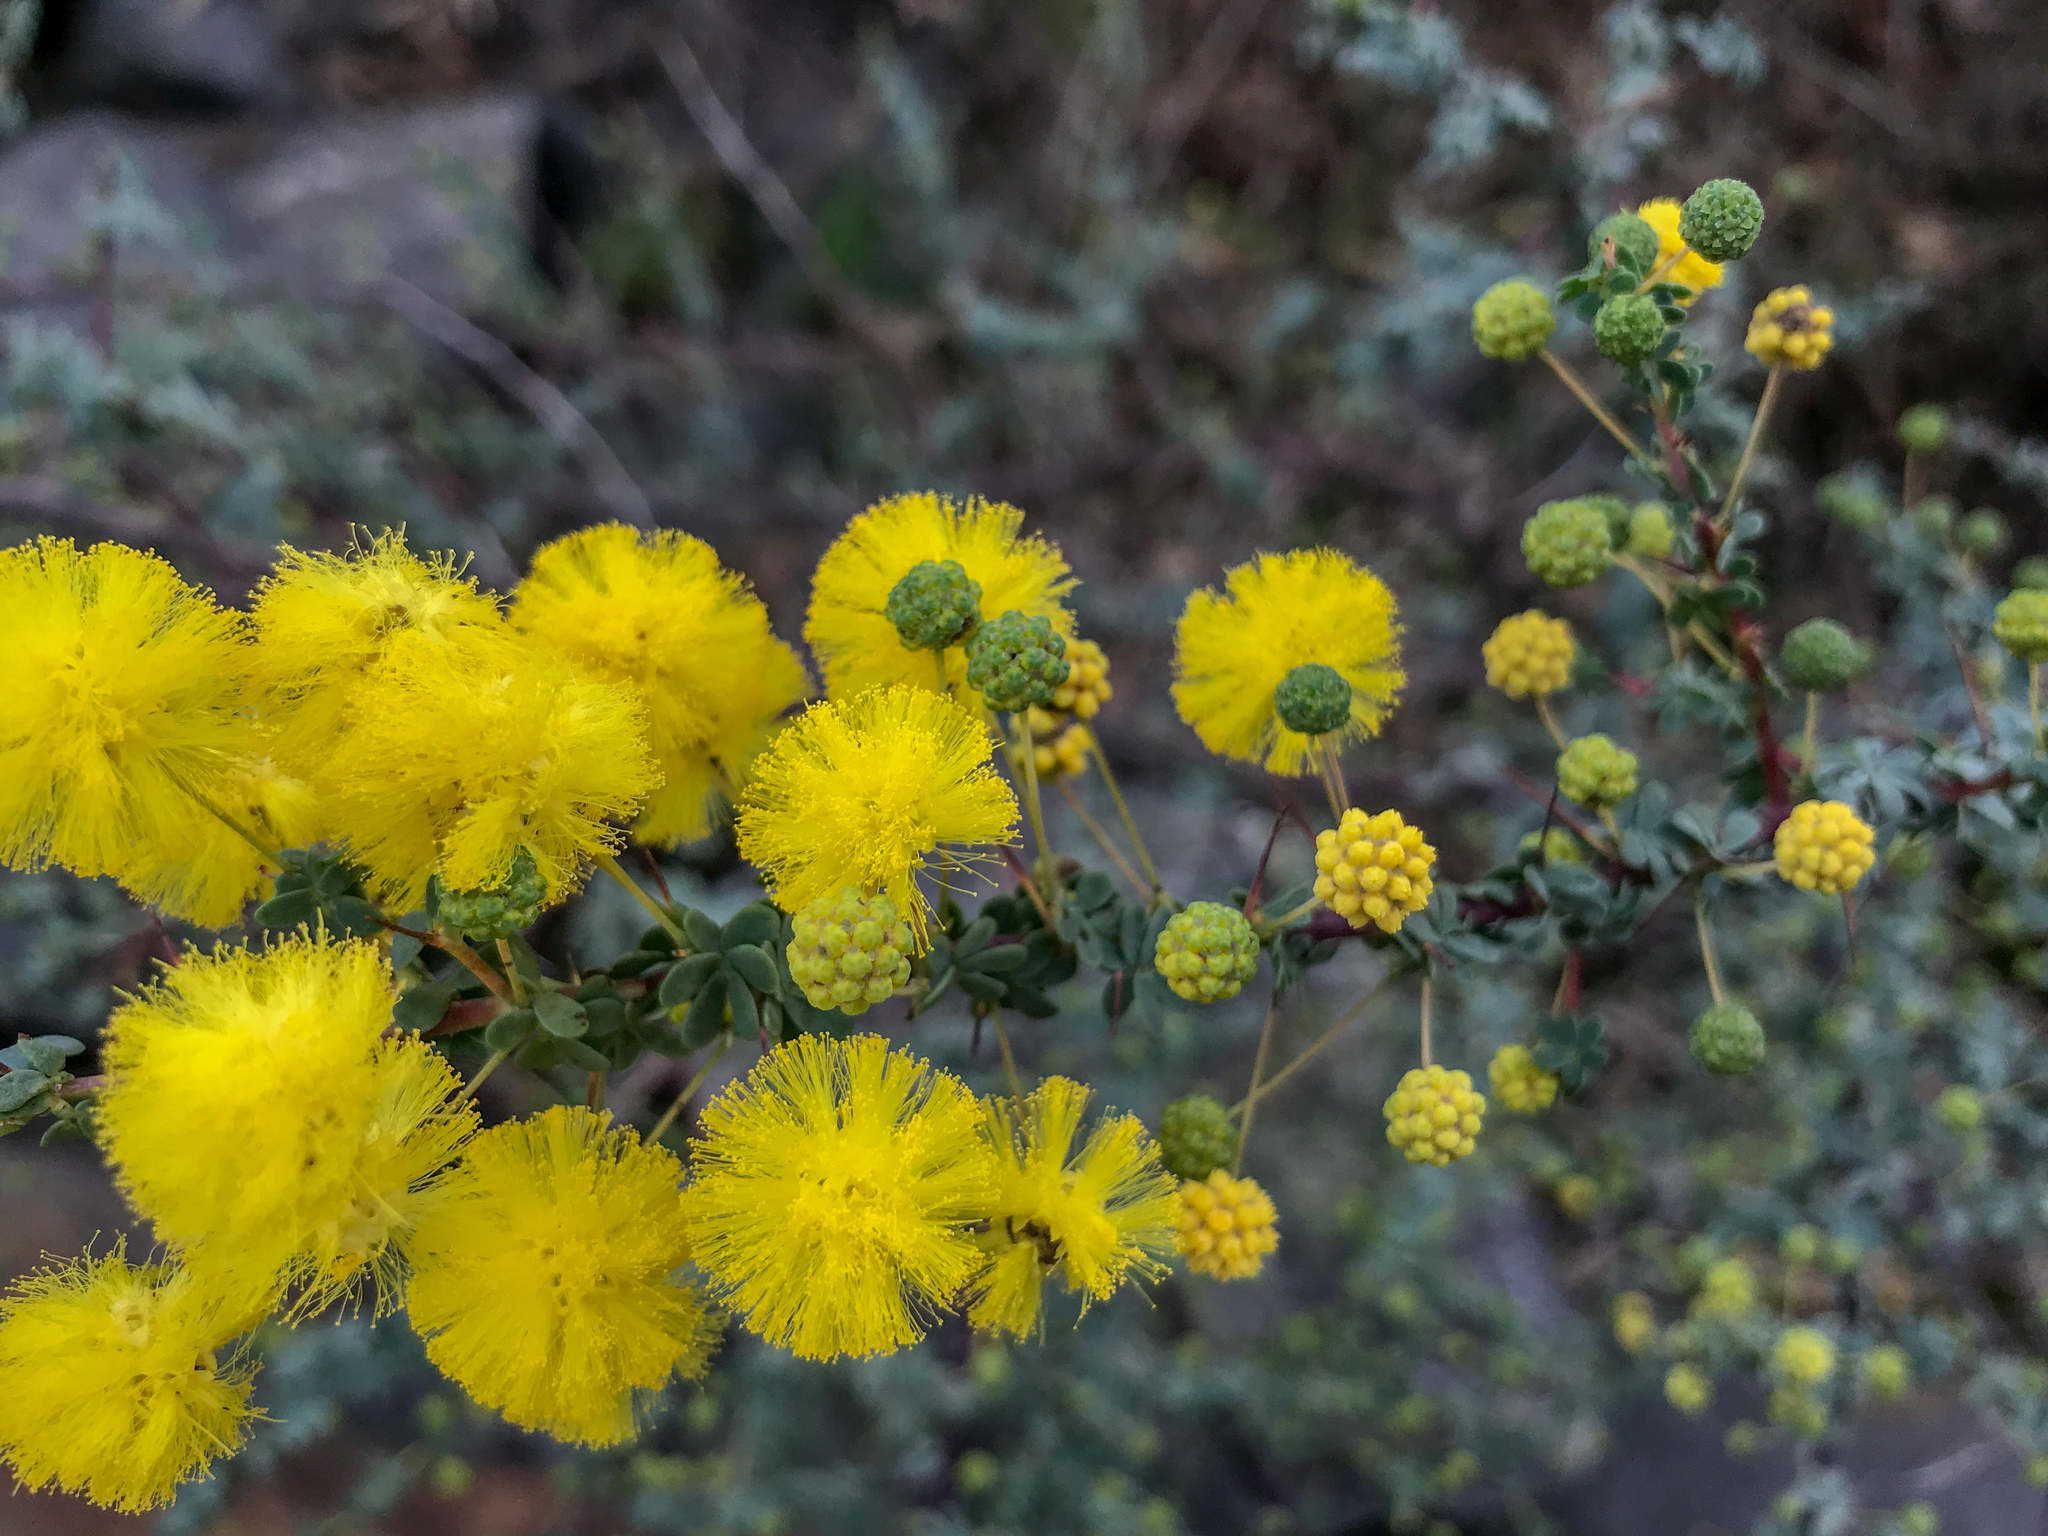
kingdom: Plantae
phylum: Tracheophyta
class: Magnoliopsida
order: Fabales
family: Fabaceae
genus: Acacia
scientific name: Acacia pulchella
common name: Prickly moses
